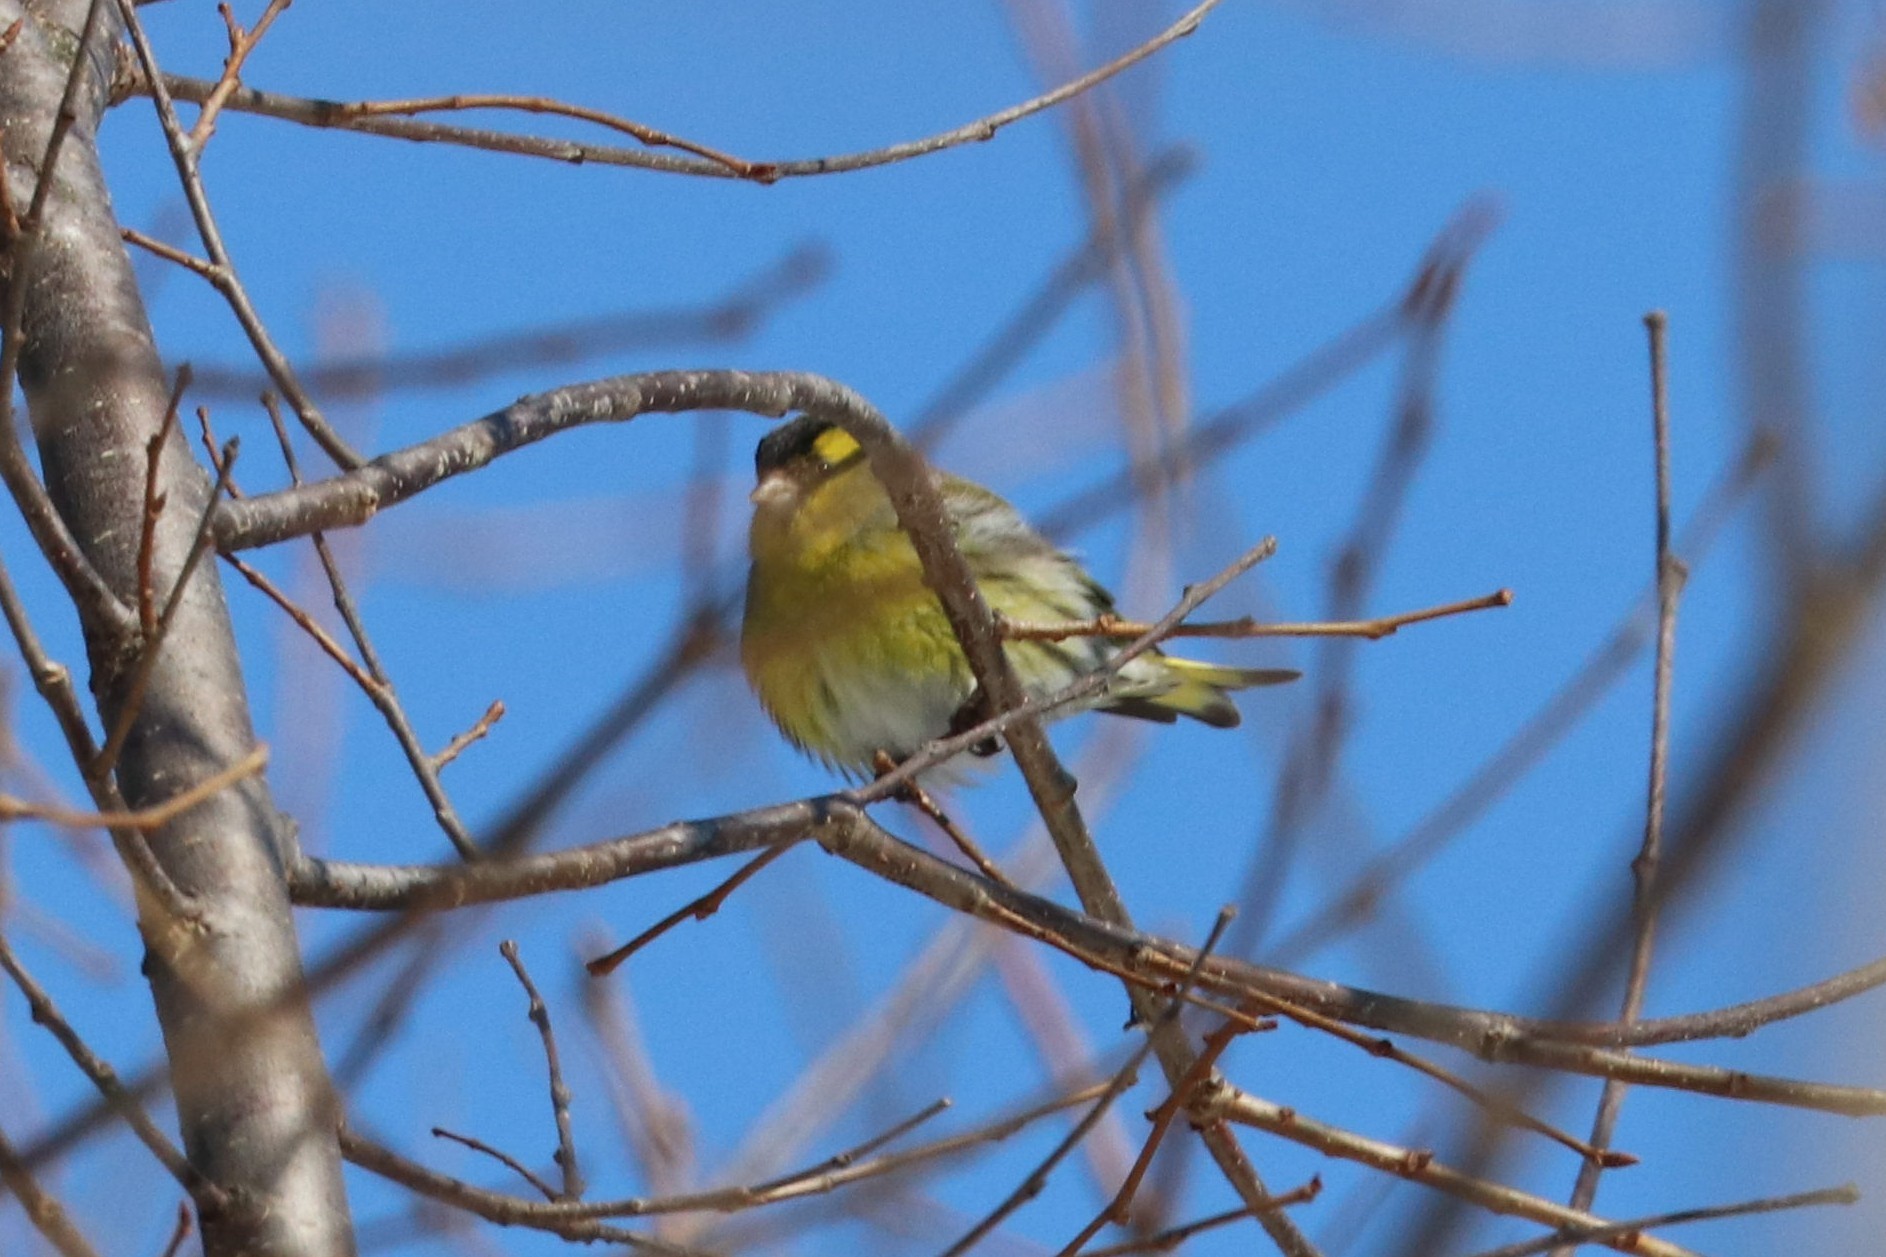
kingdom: Animalia
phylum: Chordata
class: Aves
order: Passeriformes
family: Fringillidae
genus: Spinus
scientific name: Spinus spinus
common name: Eurasian siskin
